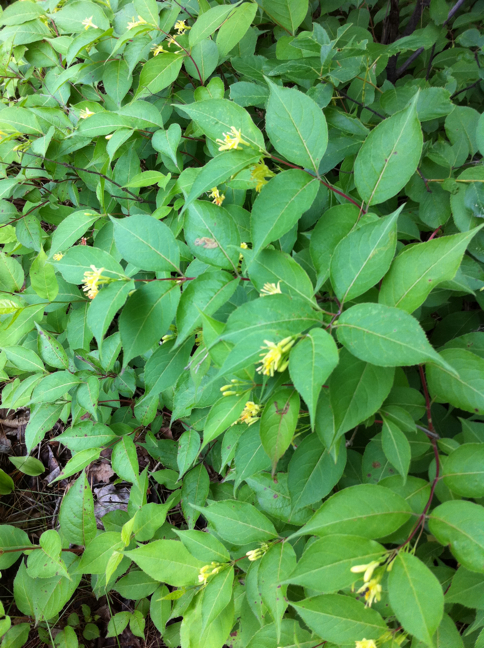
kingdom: Plantae
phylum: Tracheophyta
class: Magnoliopsida
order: Dipsacales
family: Caprifoliaceae
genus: Diervilla
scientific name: Diervilla lonicera
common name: Bush-honeysuckle
